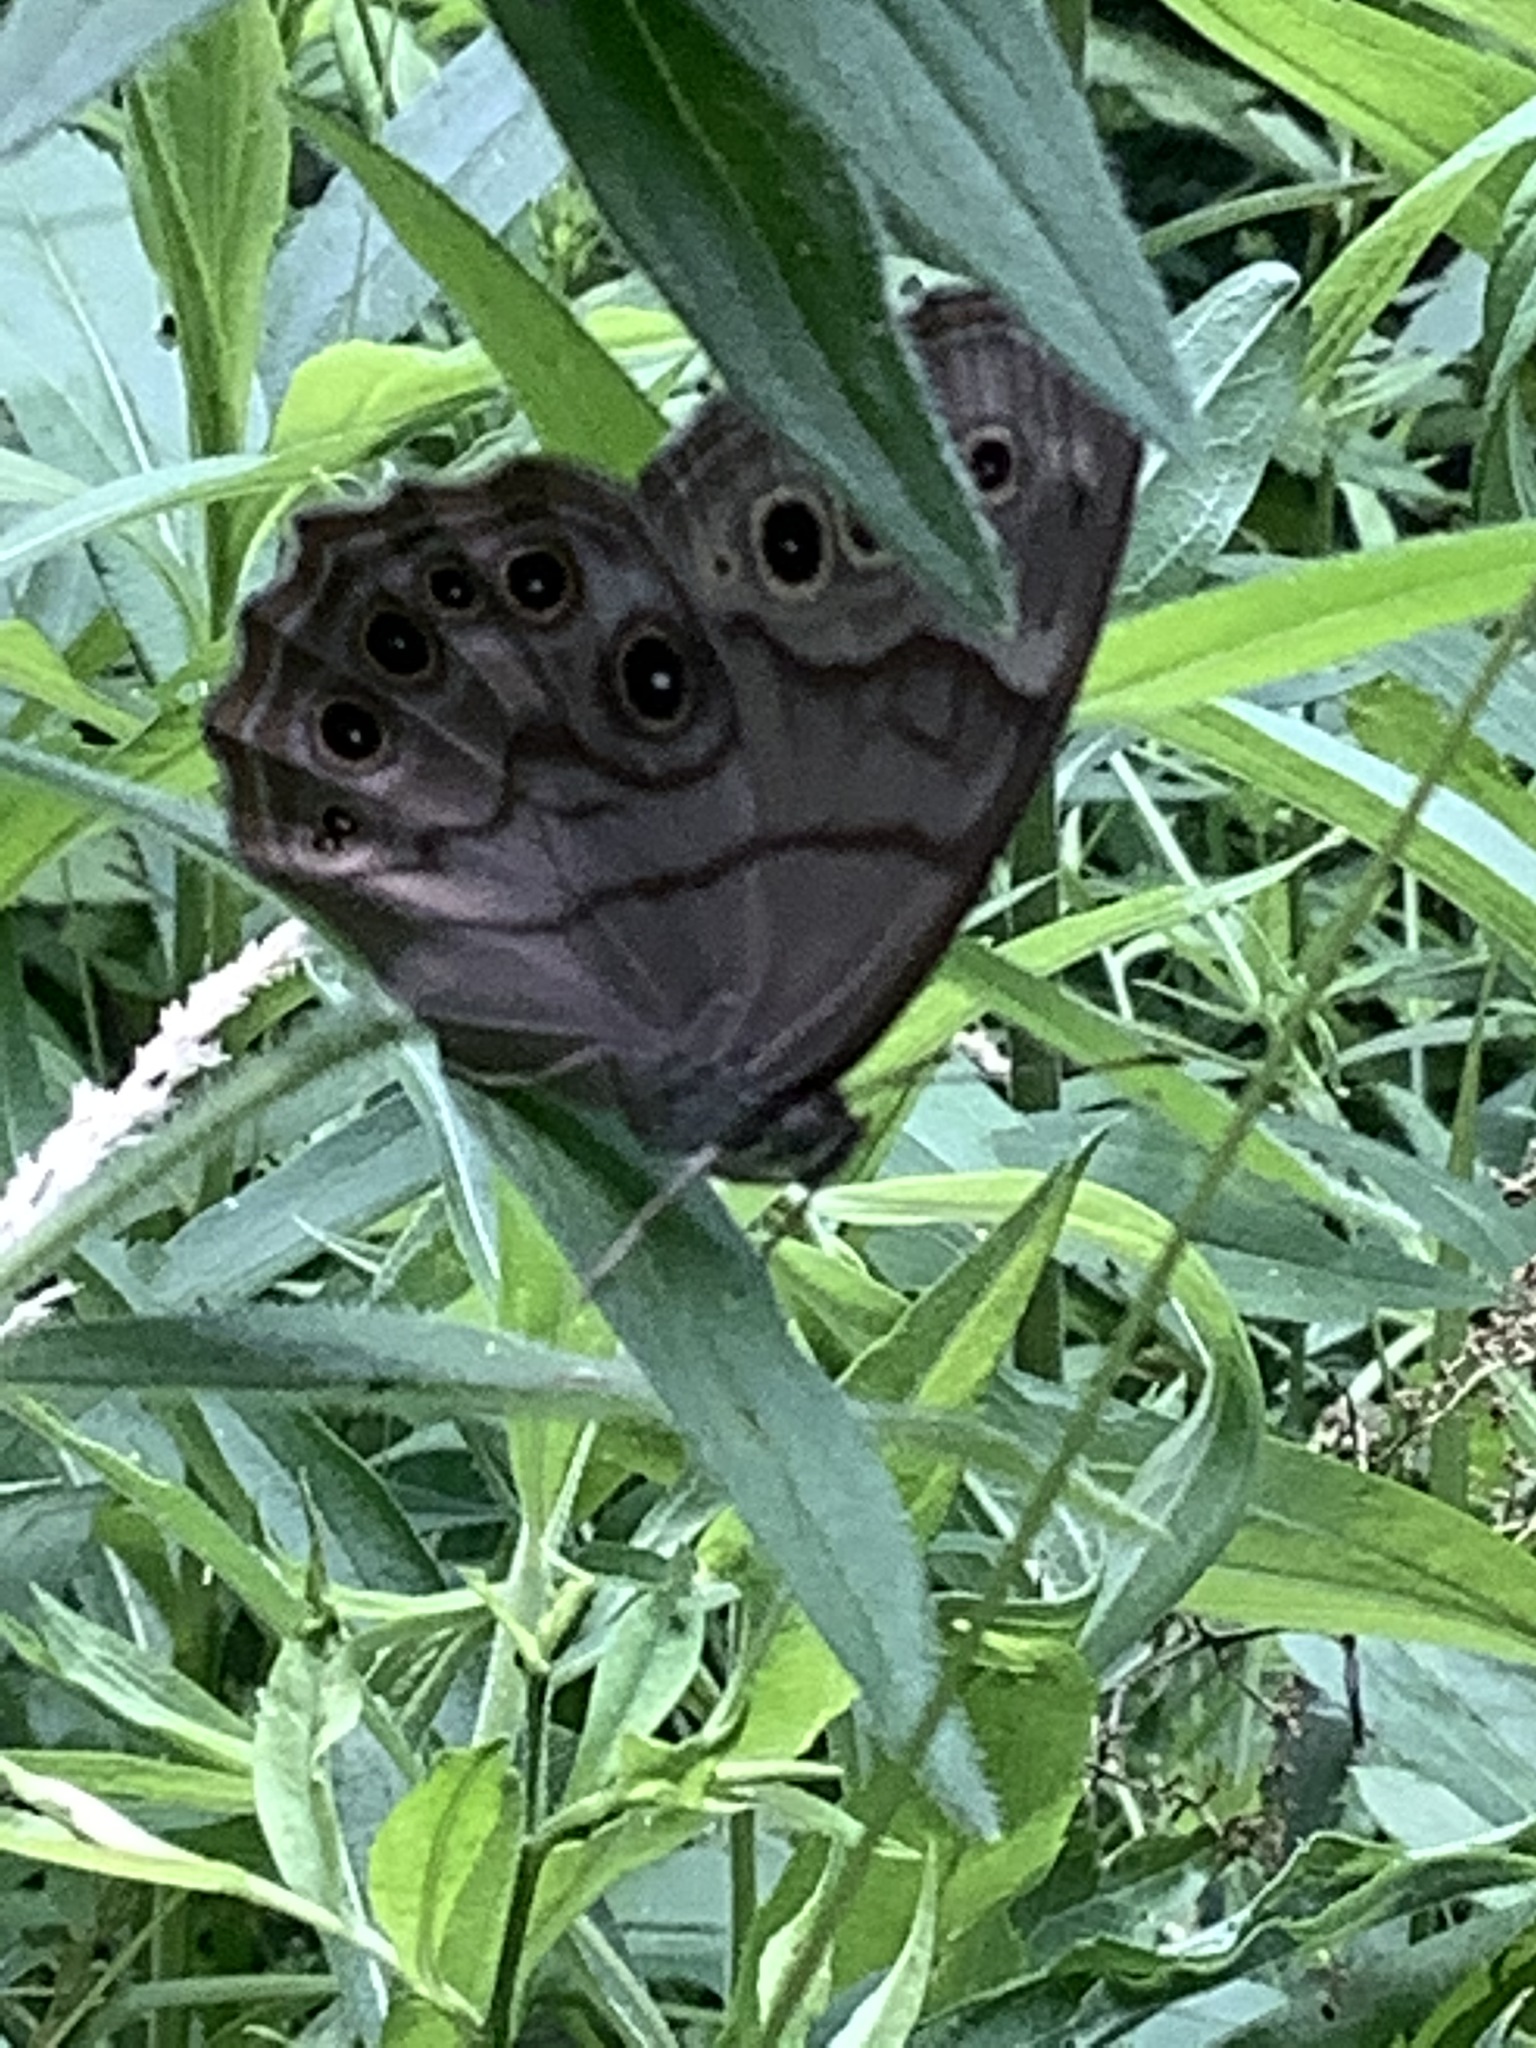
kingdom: Animalia
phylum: Arthropoda
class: Insecta
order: Lepidoptera
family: Nymphalidae
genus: Lethe
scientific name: Lethe anthedon
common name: Northern pearly-eye
